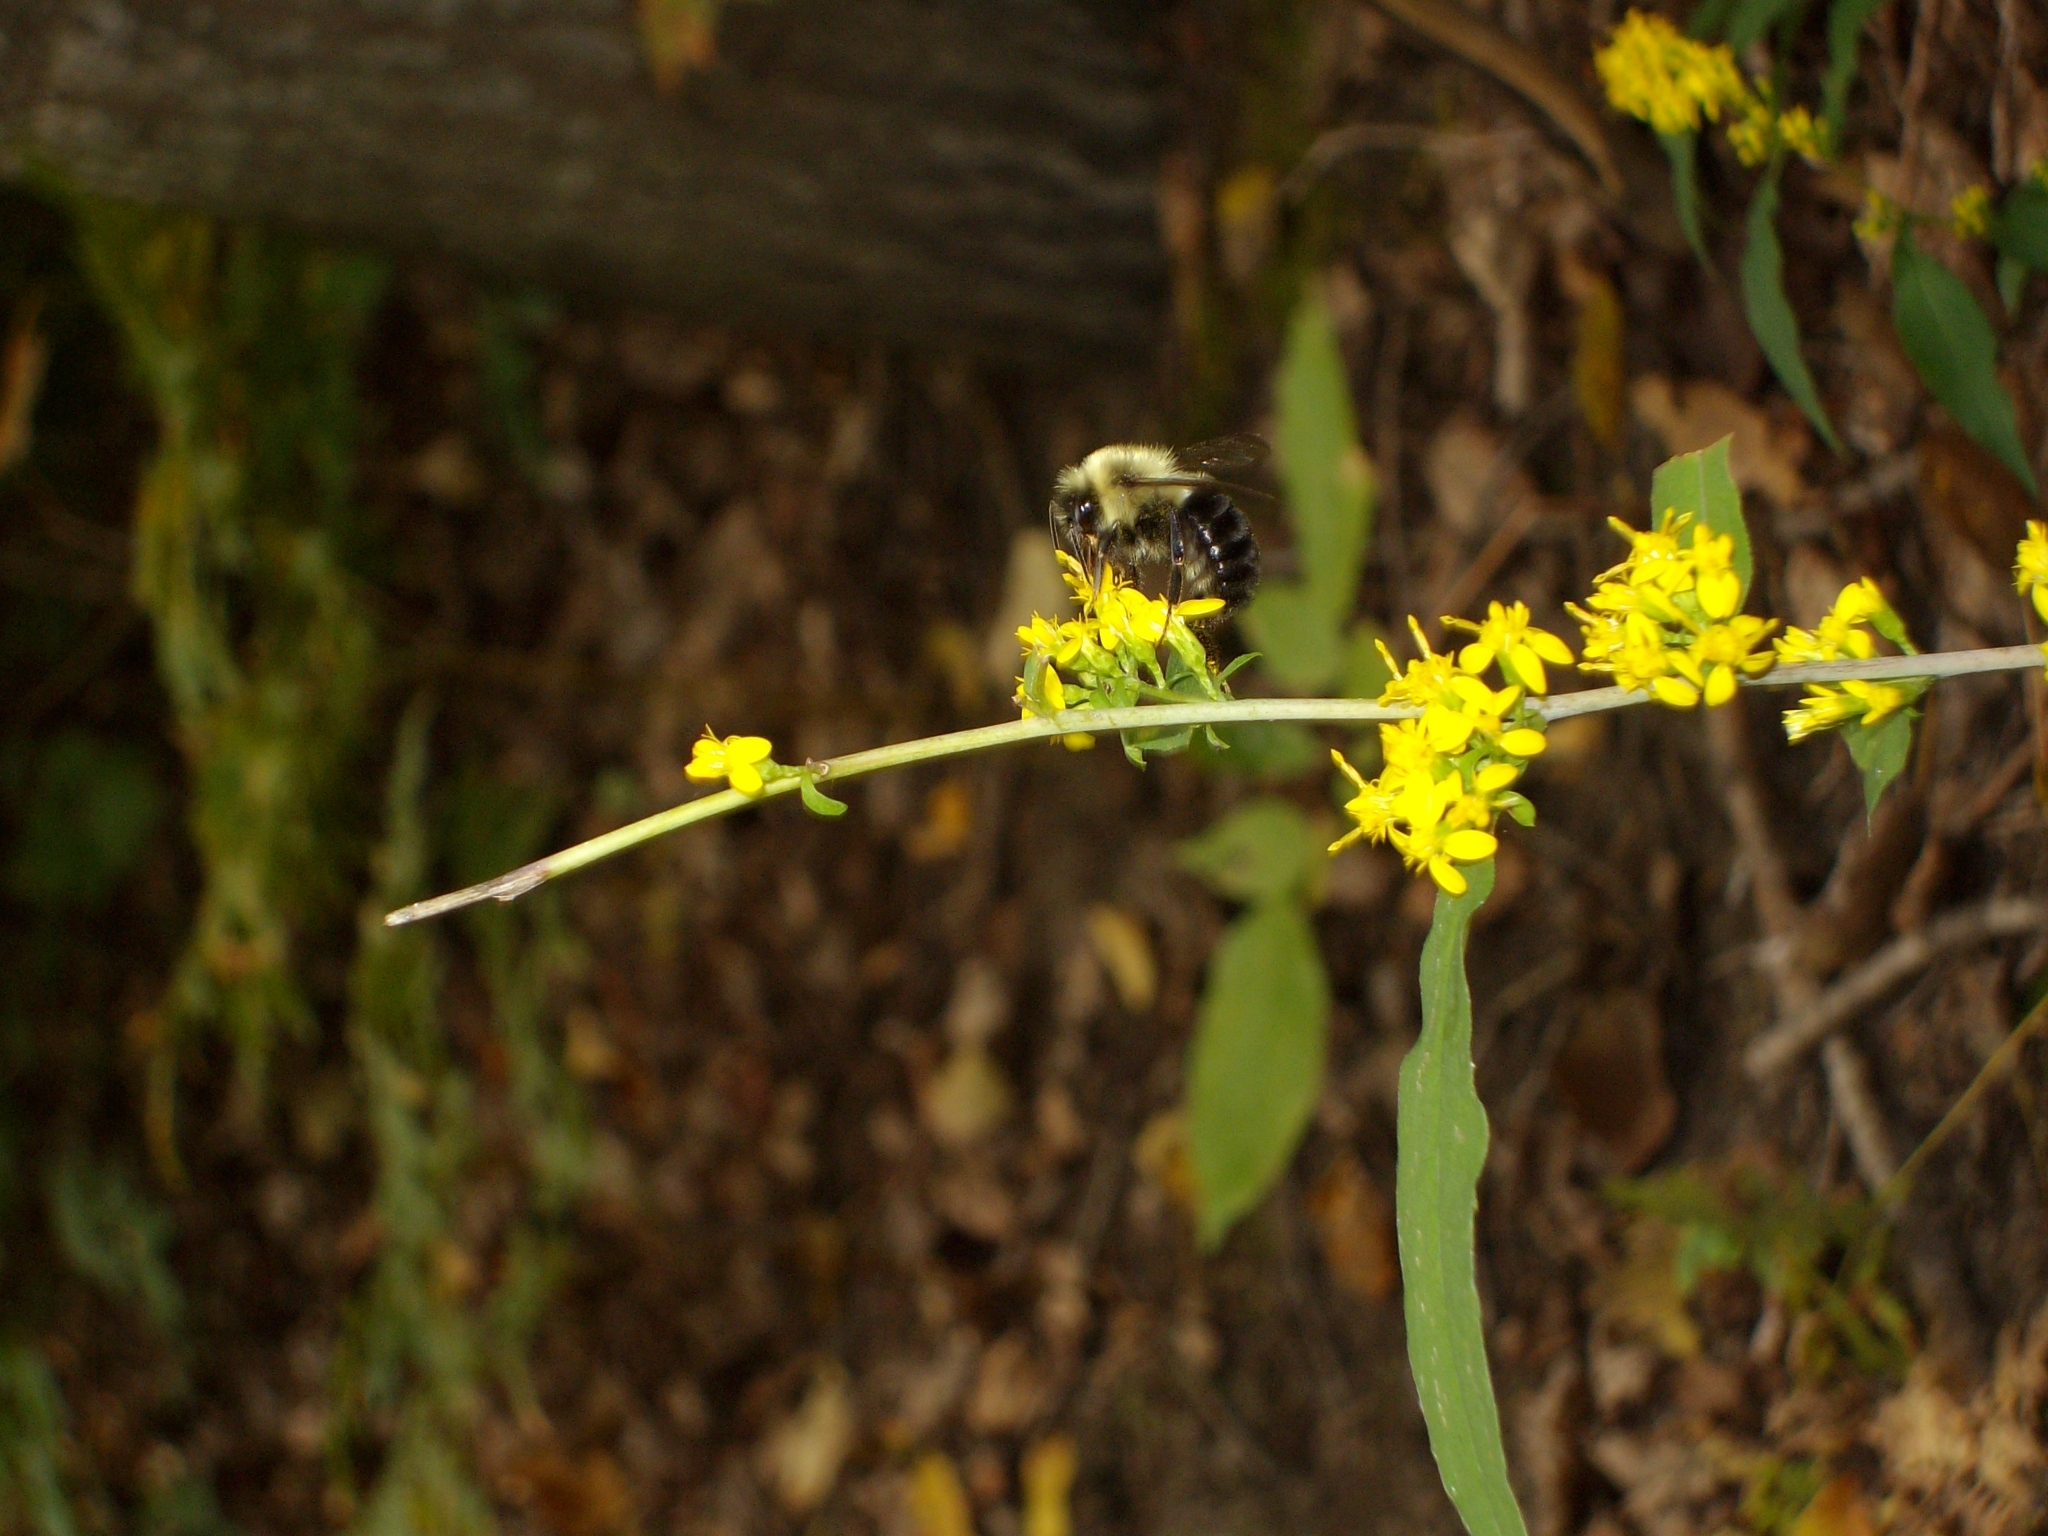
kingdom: Animalia
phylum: Arthropoda
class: Insecta
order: Hymenoptera
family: Apidae
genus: Bombus
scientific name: Bombus impatiens
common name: Common eastern bumble bee
